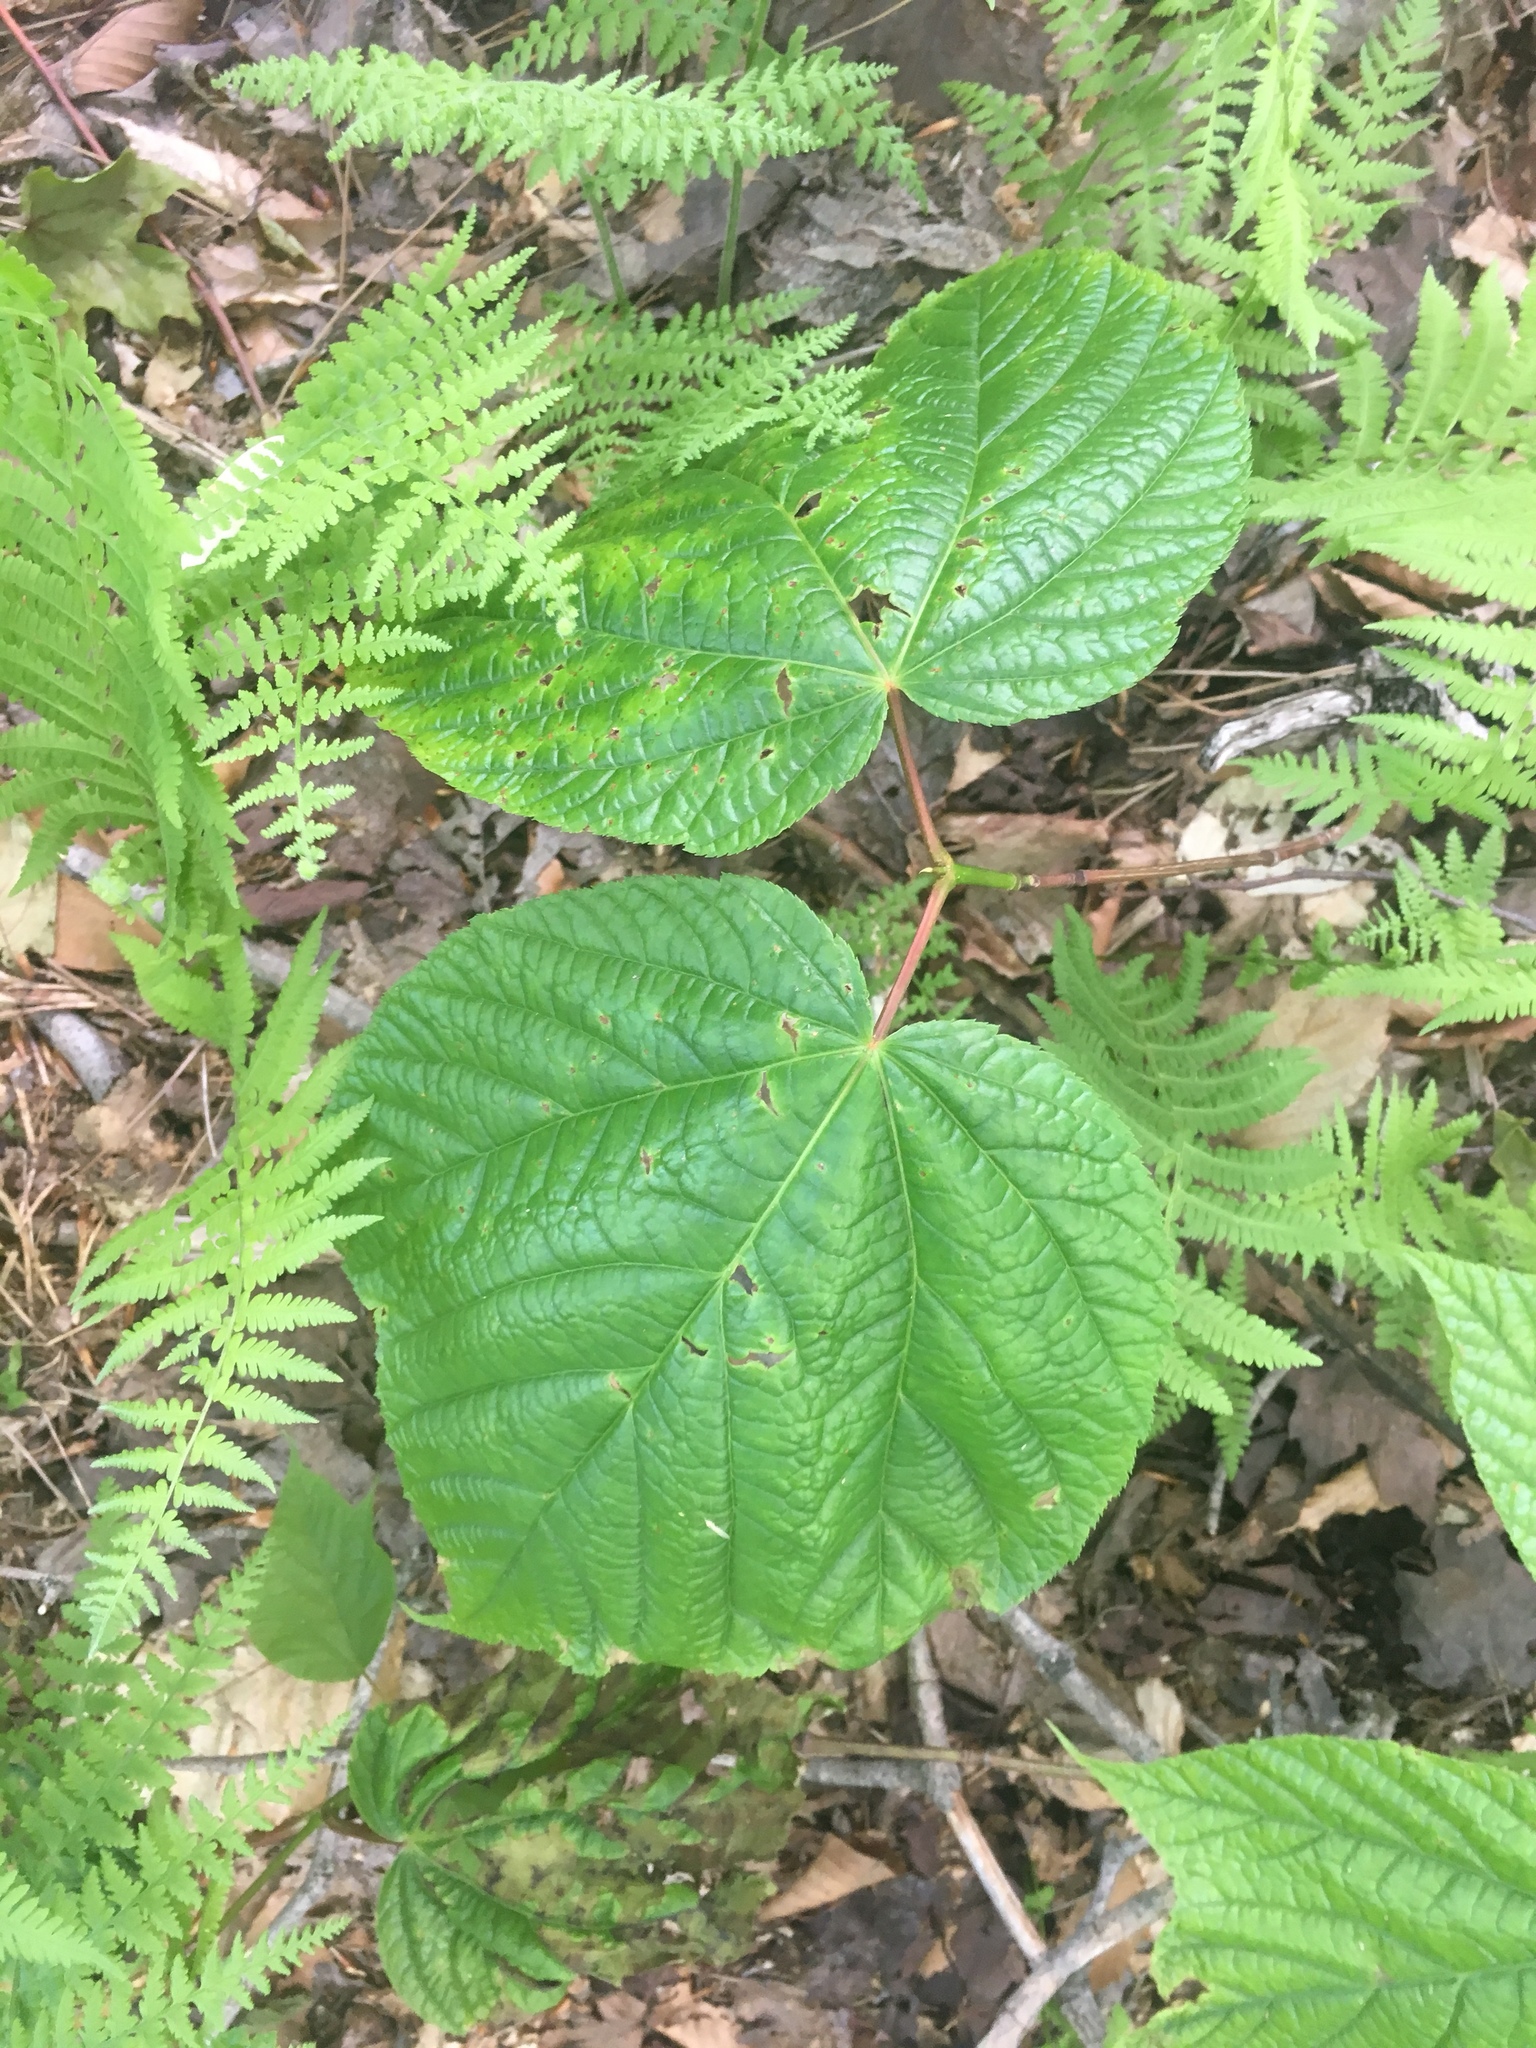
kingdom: Plantae
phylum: Tracheophyta
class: Magnoliopsida
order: Sapindales
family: Sapindaceae
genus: Acer
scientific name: Acer pensylvanicum
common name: Moosewood
